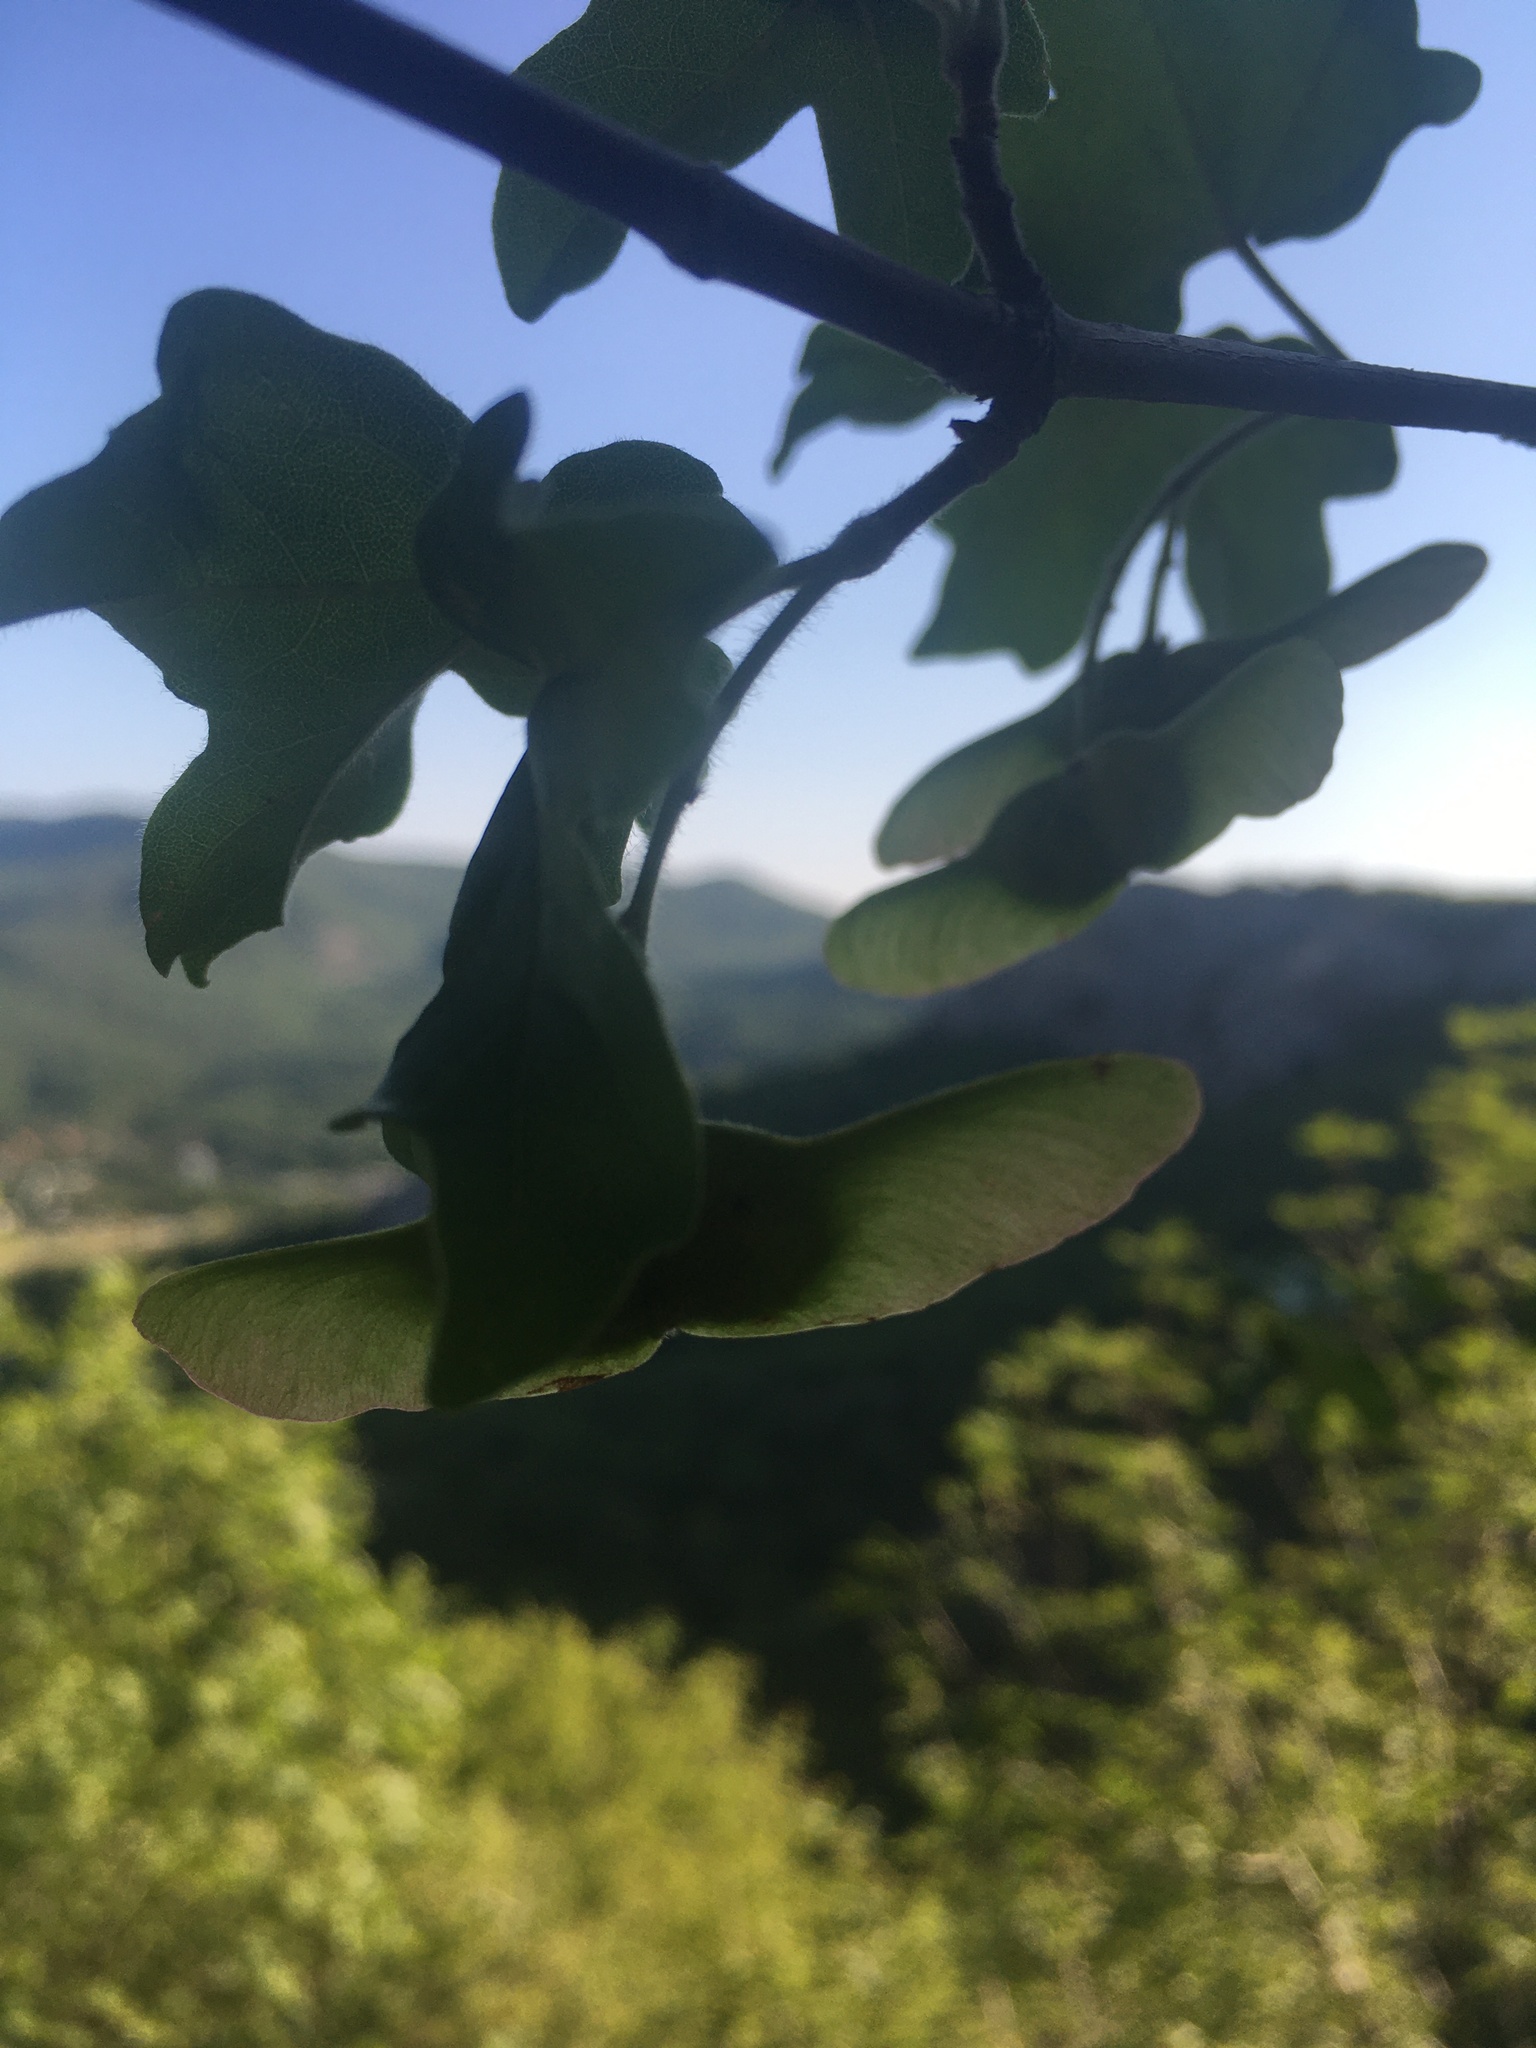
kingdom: Plantae
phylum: Tracheophyta
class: Magnoliopsida
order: Sapindales
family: Sapindaceae
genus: Acer
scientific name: Acer campestre
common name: Field maple
